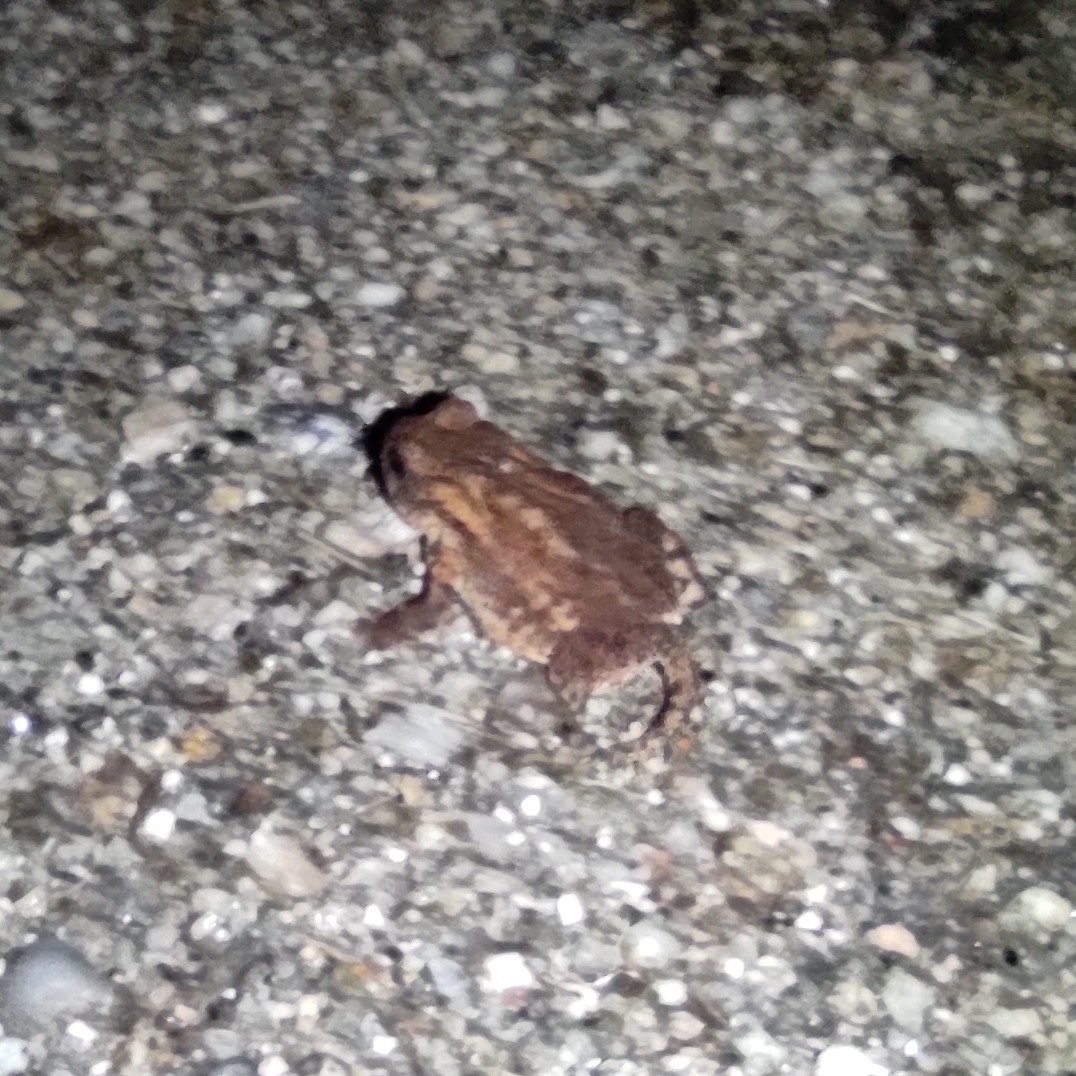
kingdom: Animalia
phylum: Chordata
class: Amphibia
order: Anura
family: Bufonidae
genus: Bufo
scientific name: Bufo spinosus
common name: Western common toad
